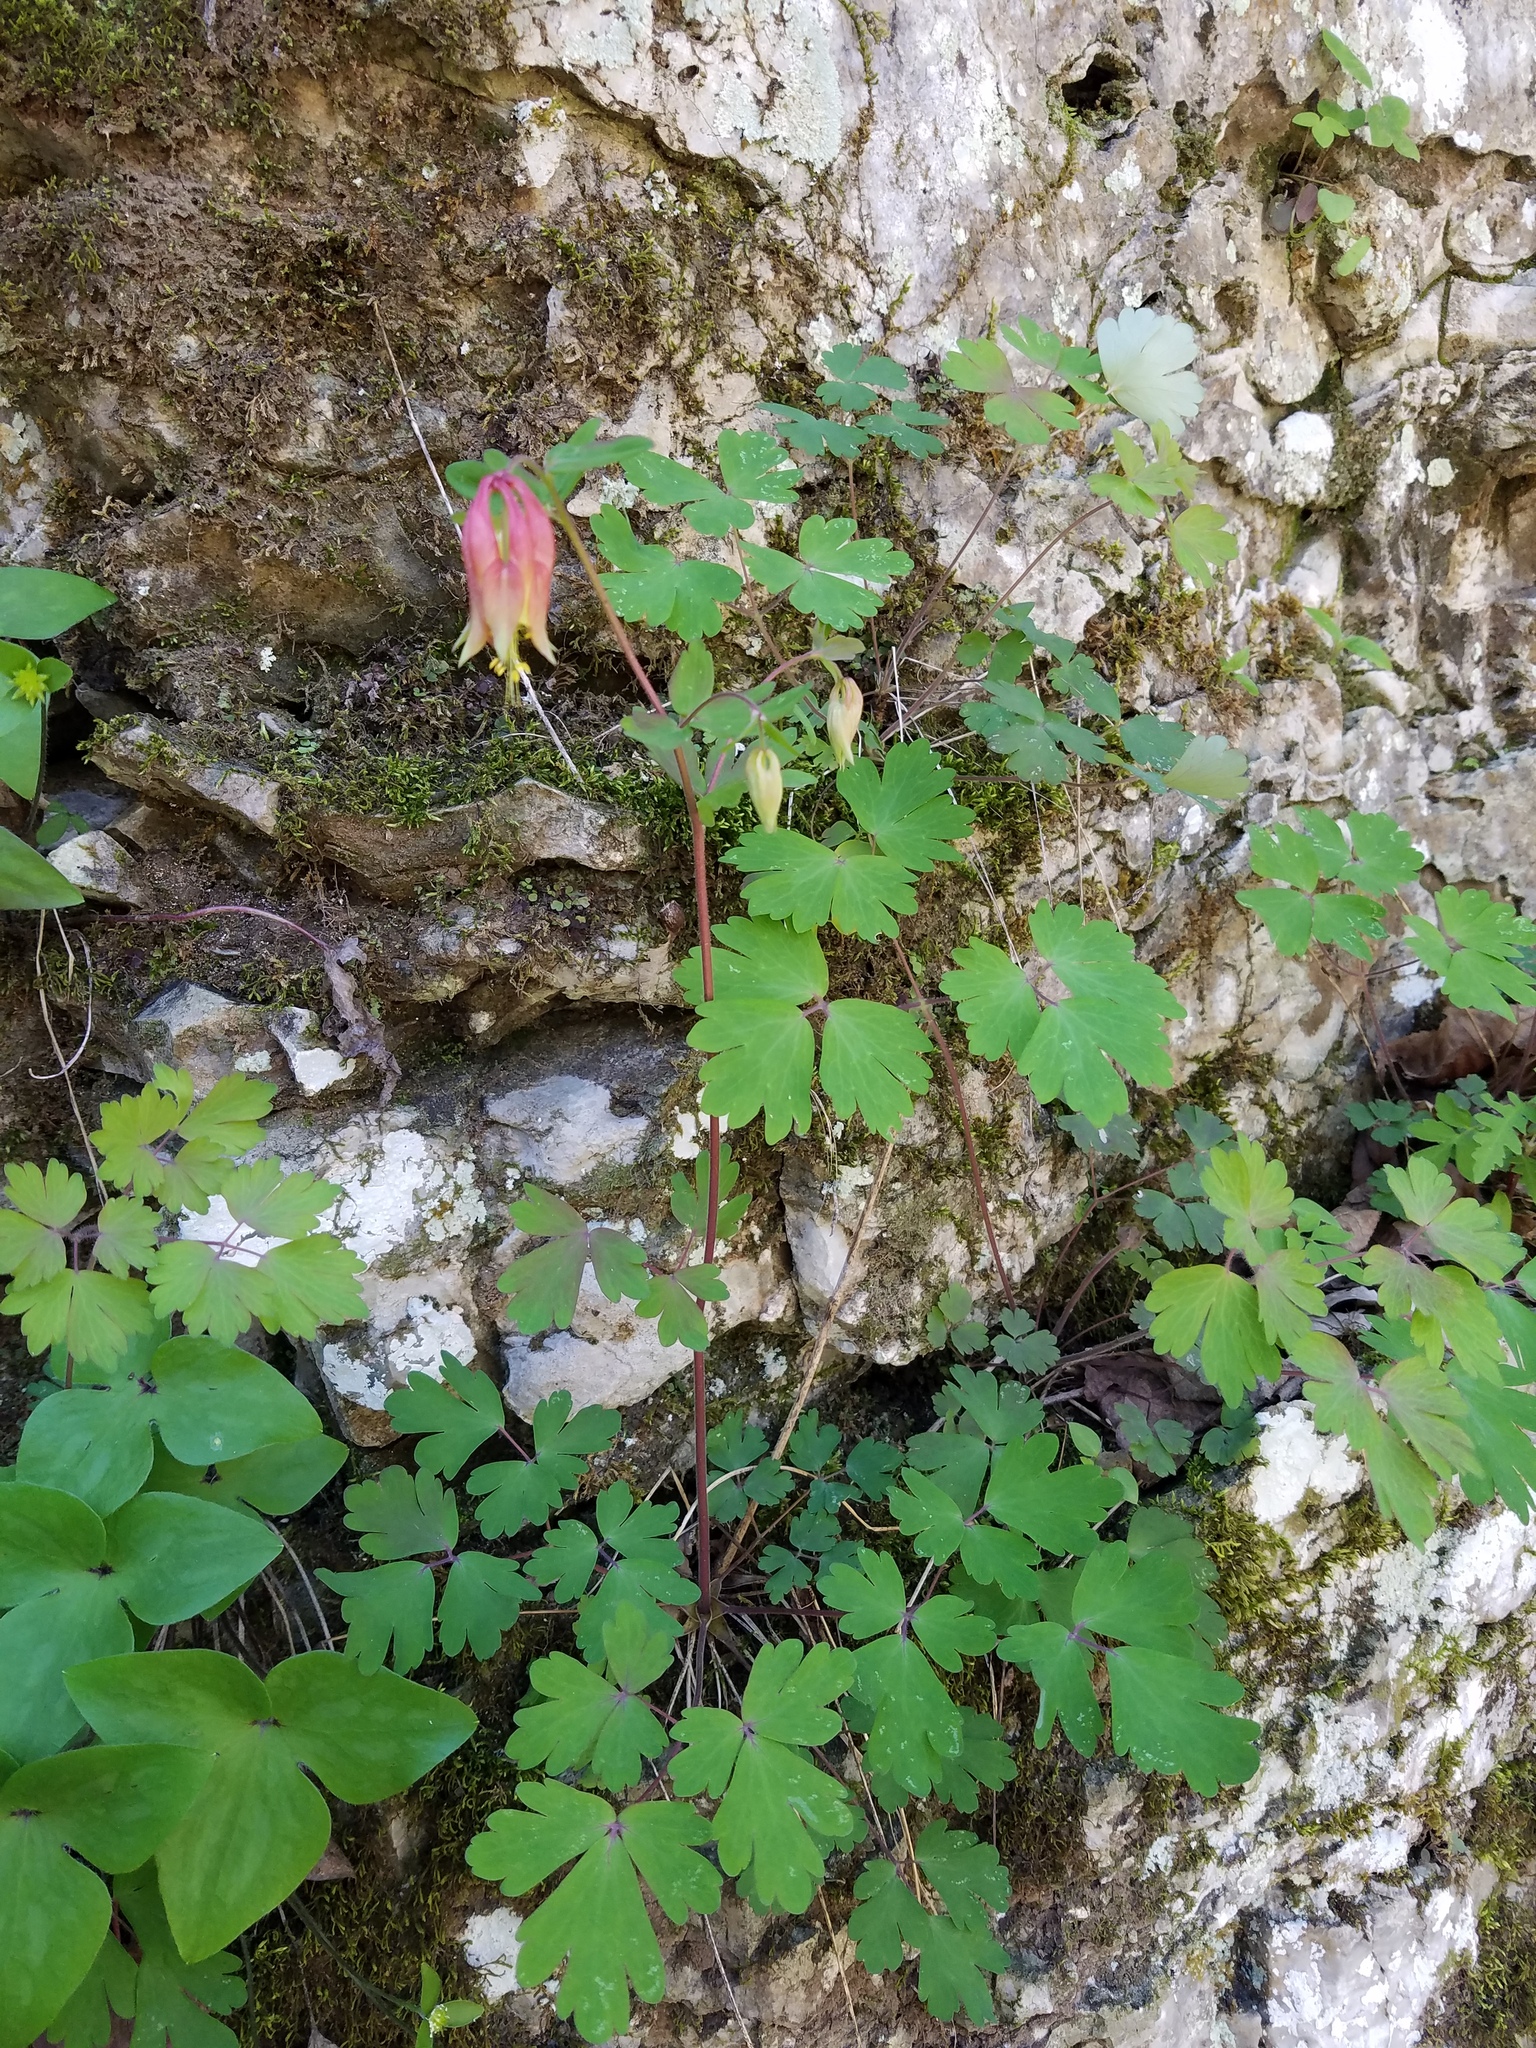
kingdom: Plantae
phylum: Tracheophyta
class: Magnoliopsida
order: Ranunculales
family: Ranunculaceae
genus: Aquilegia
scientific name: Aquilegia canadensis
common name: American columbine
